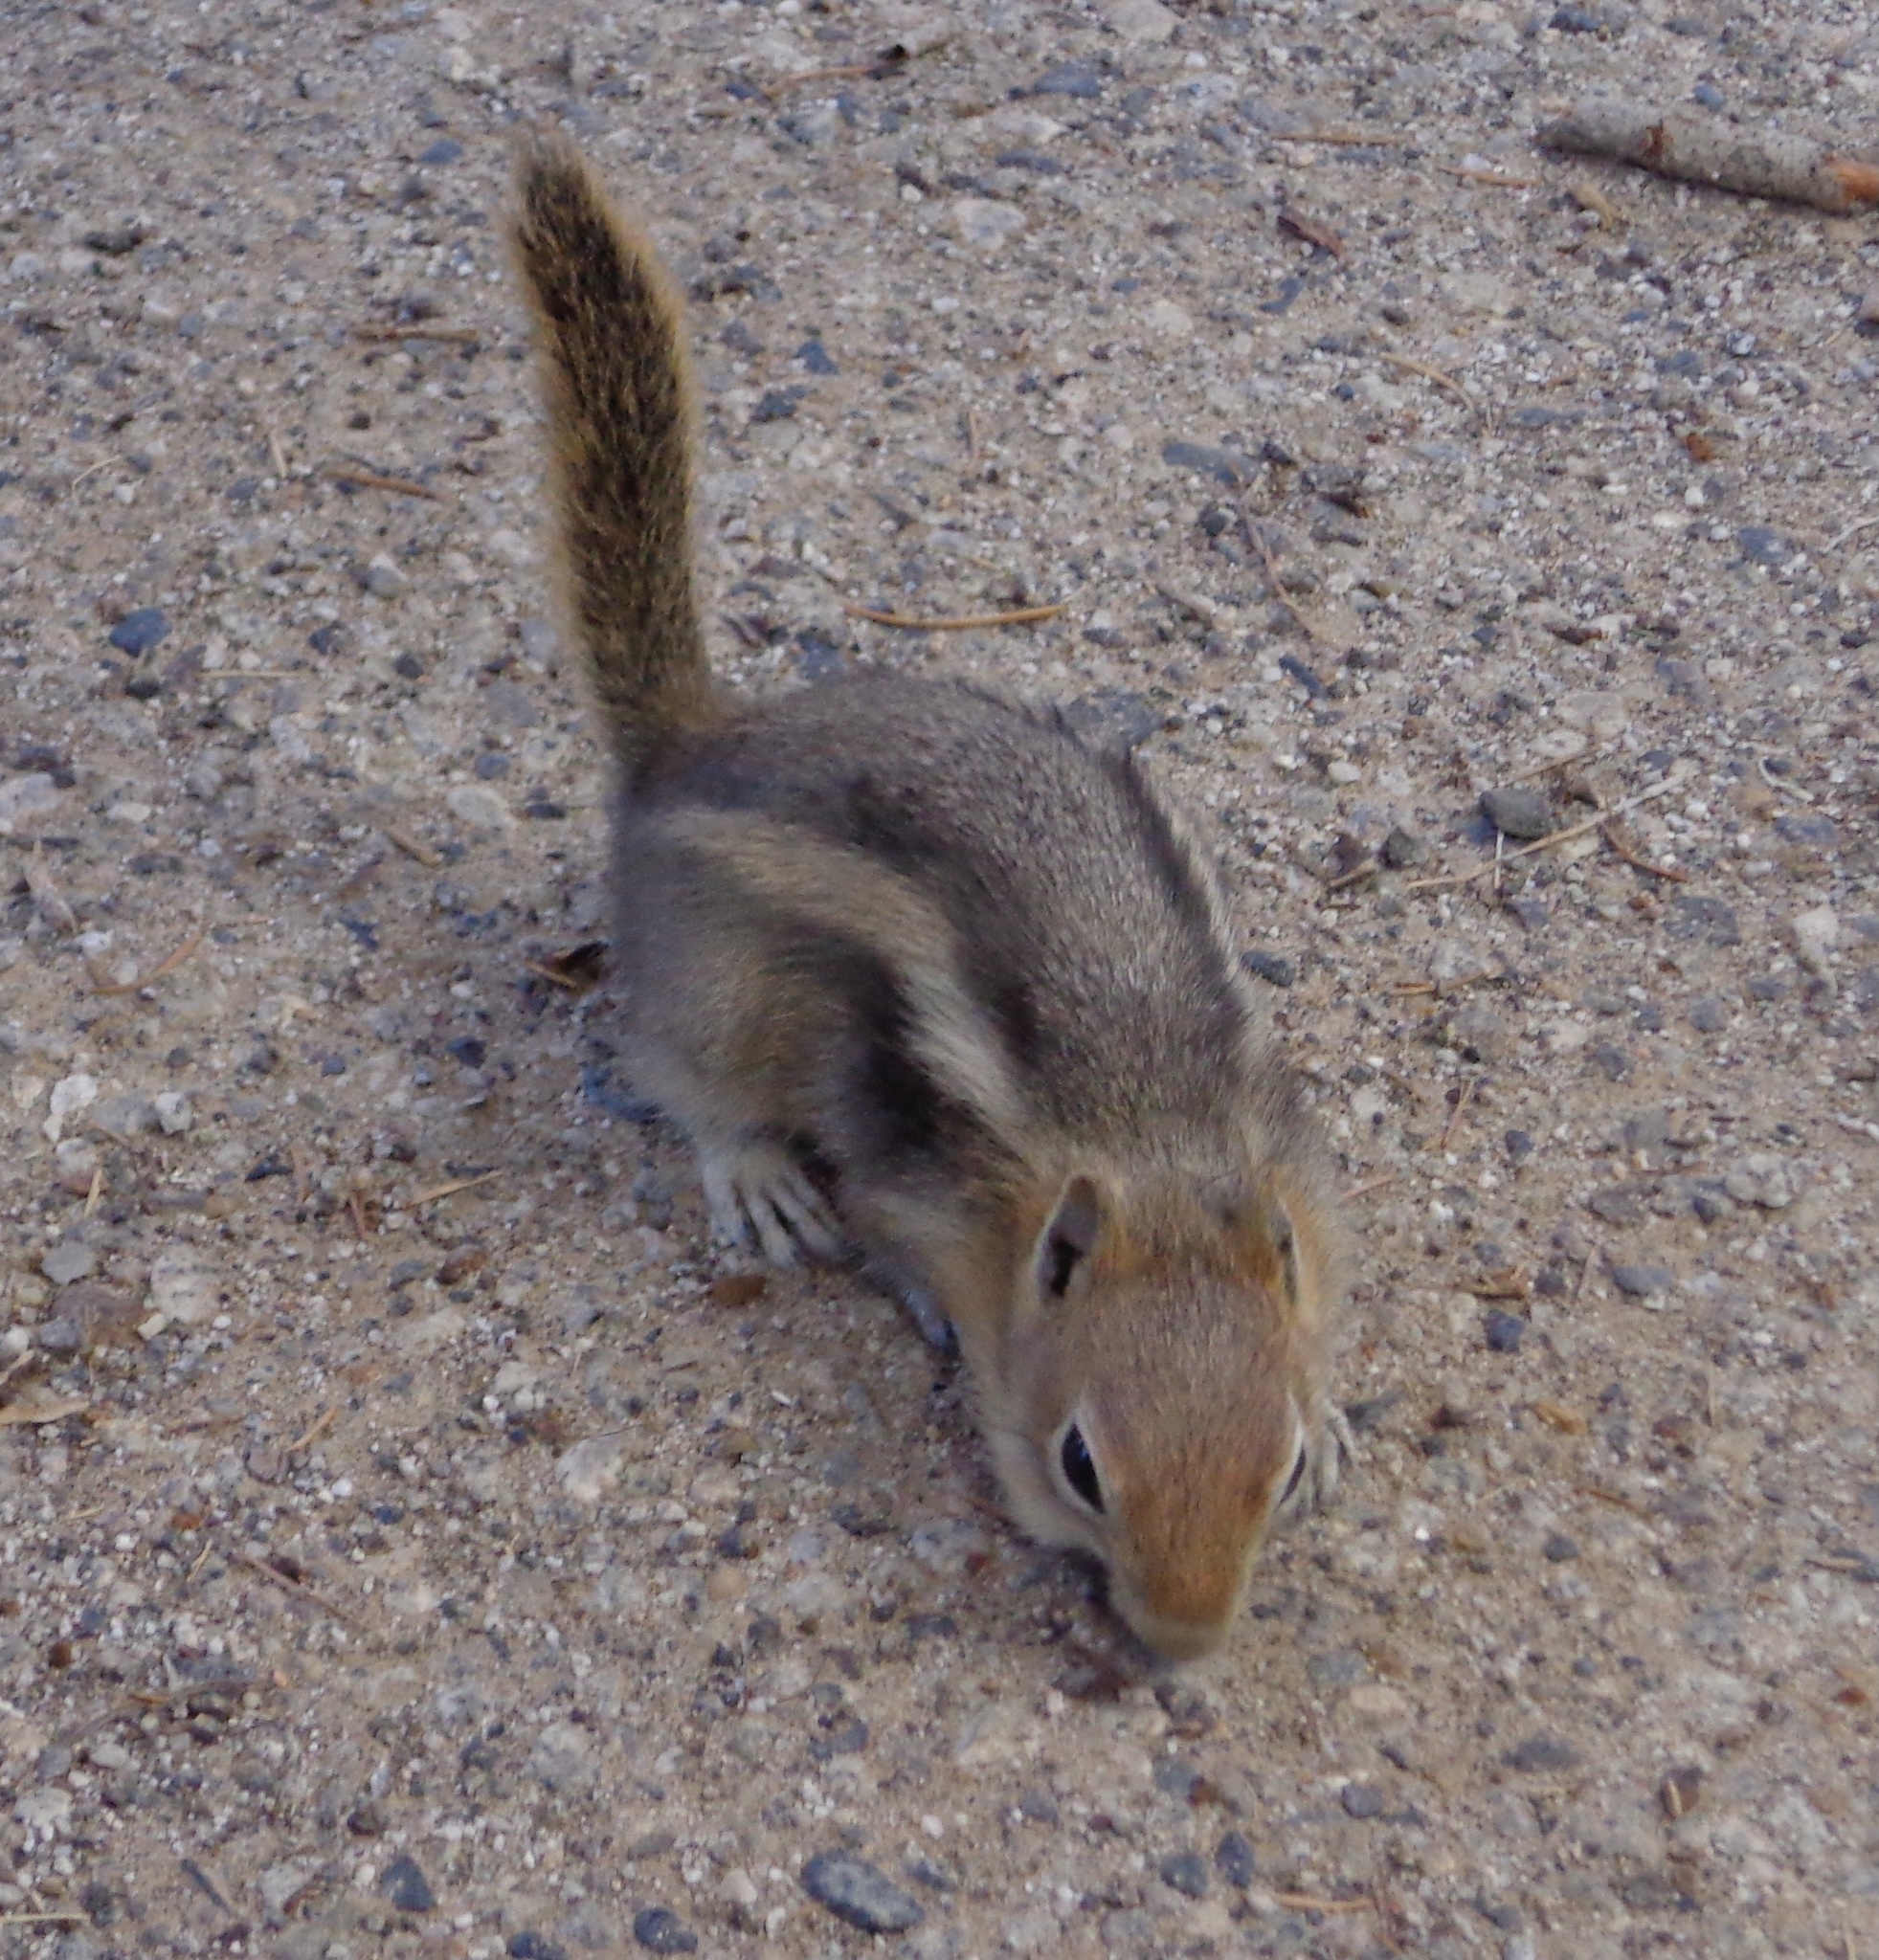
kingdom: Animalia
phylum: Chordata
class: Mammalia
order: Rodentia
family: Sciuridae
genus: Callospermophilus
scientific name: Callospermophilus lateralis
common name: Golden-mantled ground squirrel
